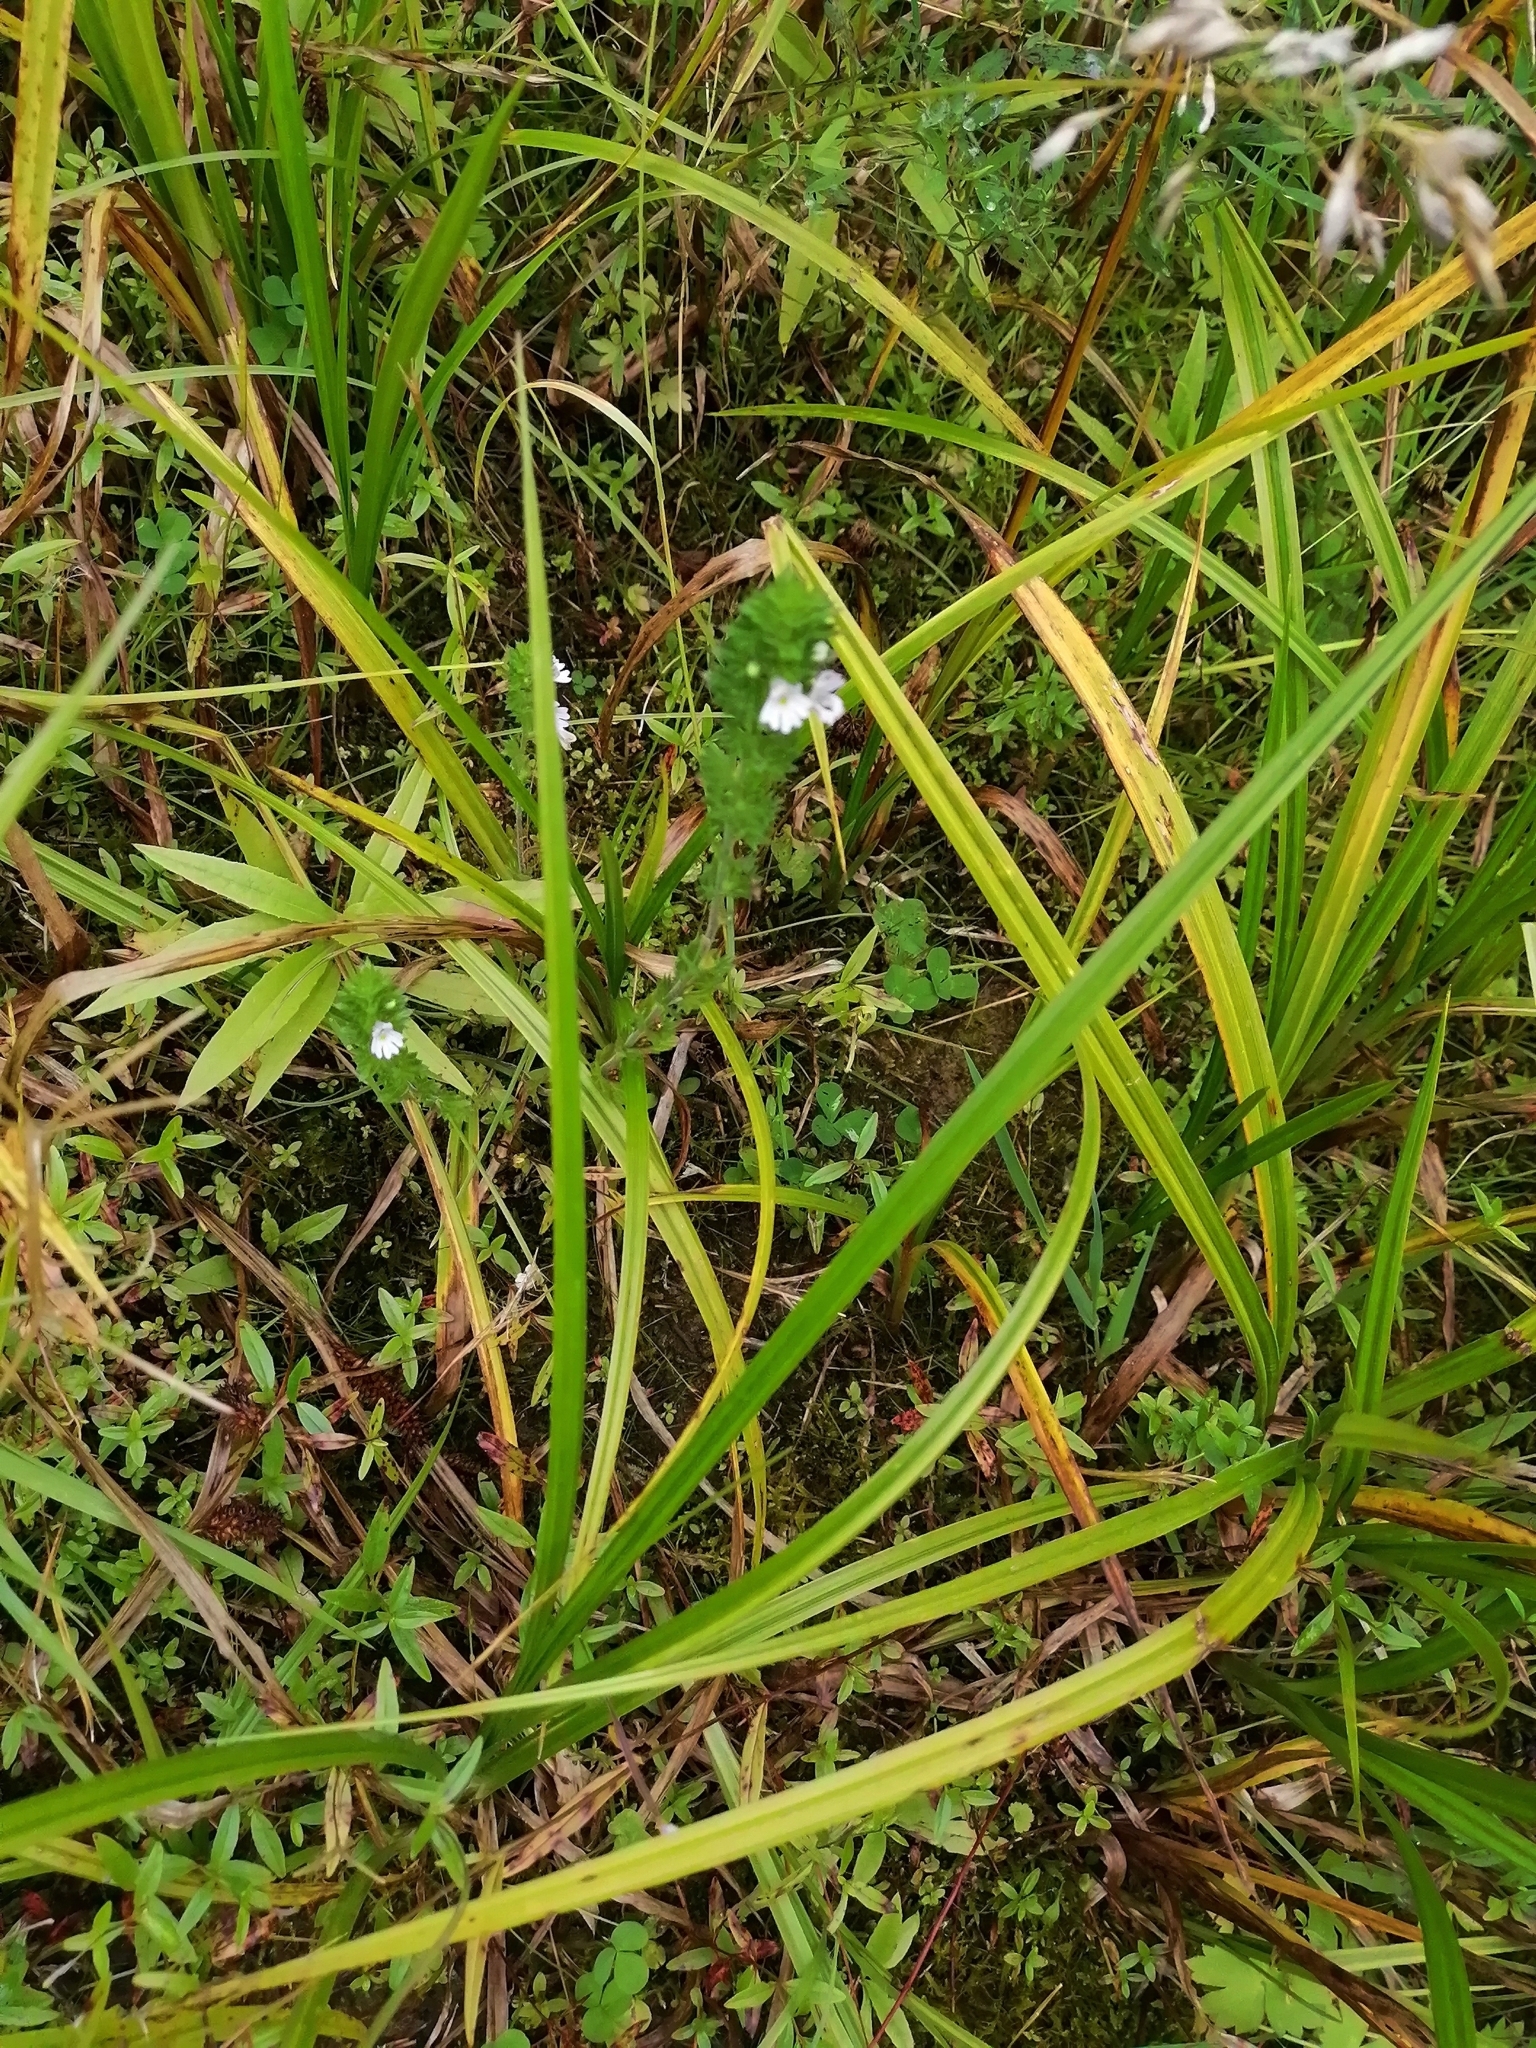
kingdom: Plantae
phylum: Tracheophyta
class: Magnoliopsida
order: Lamiales
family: Orobanchaceae
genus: Euphrasia
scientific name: Euphrasia
